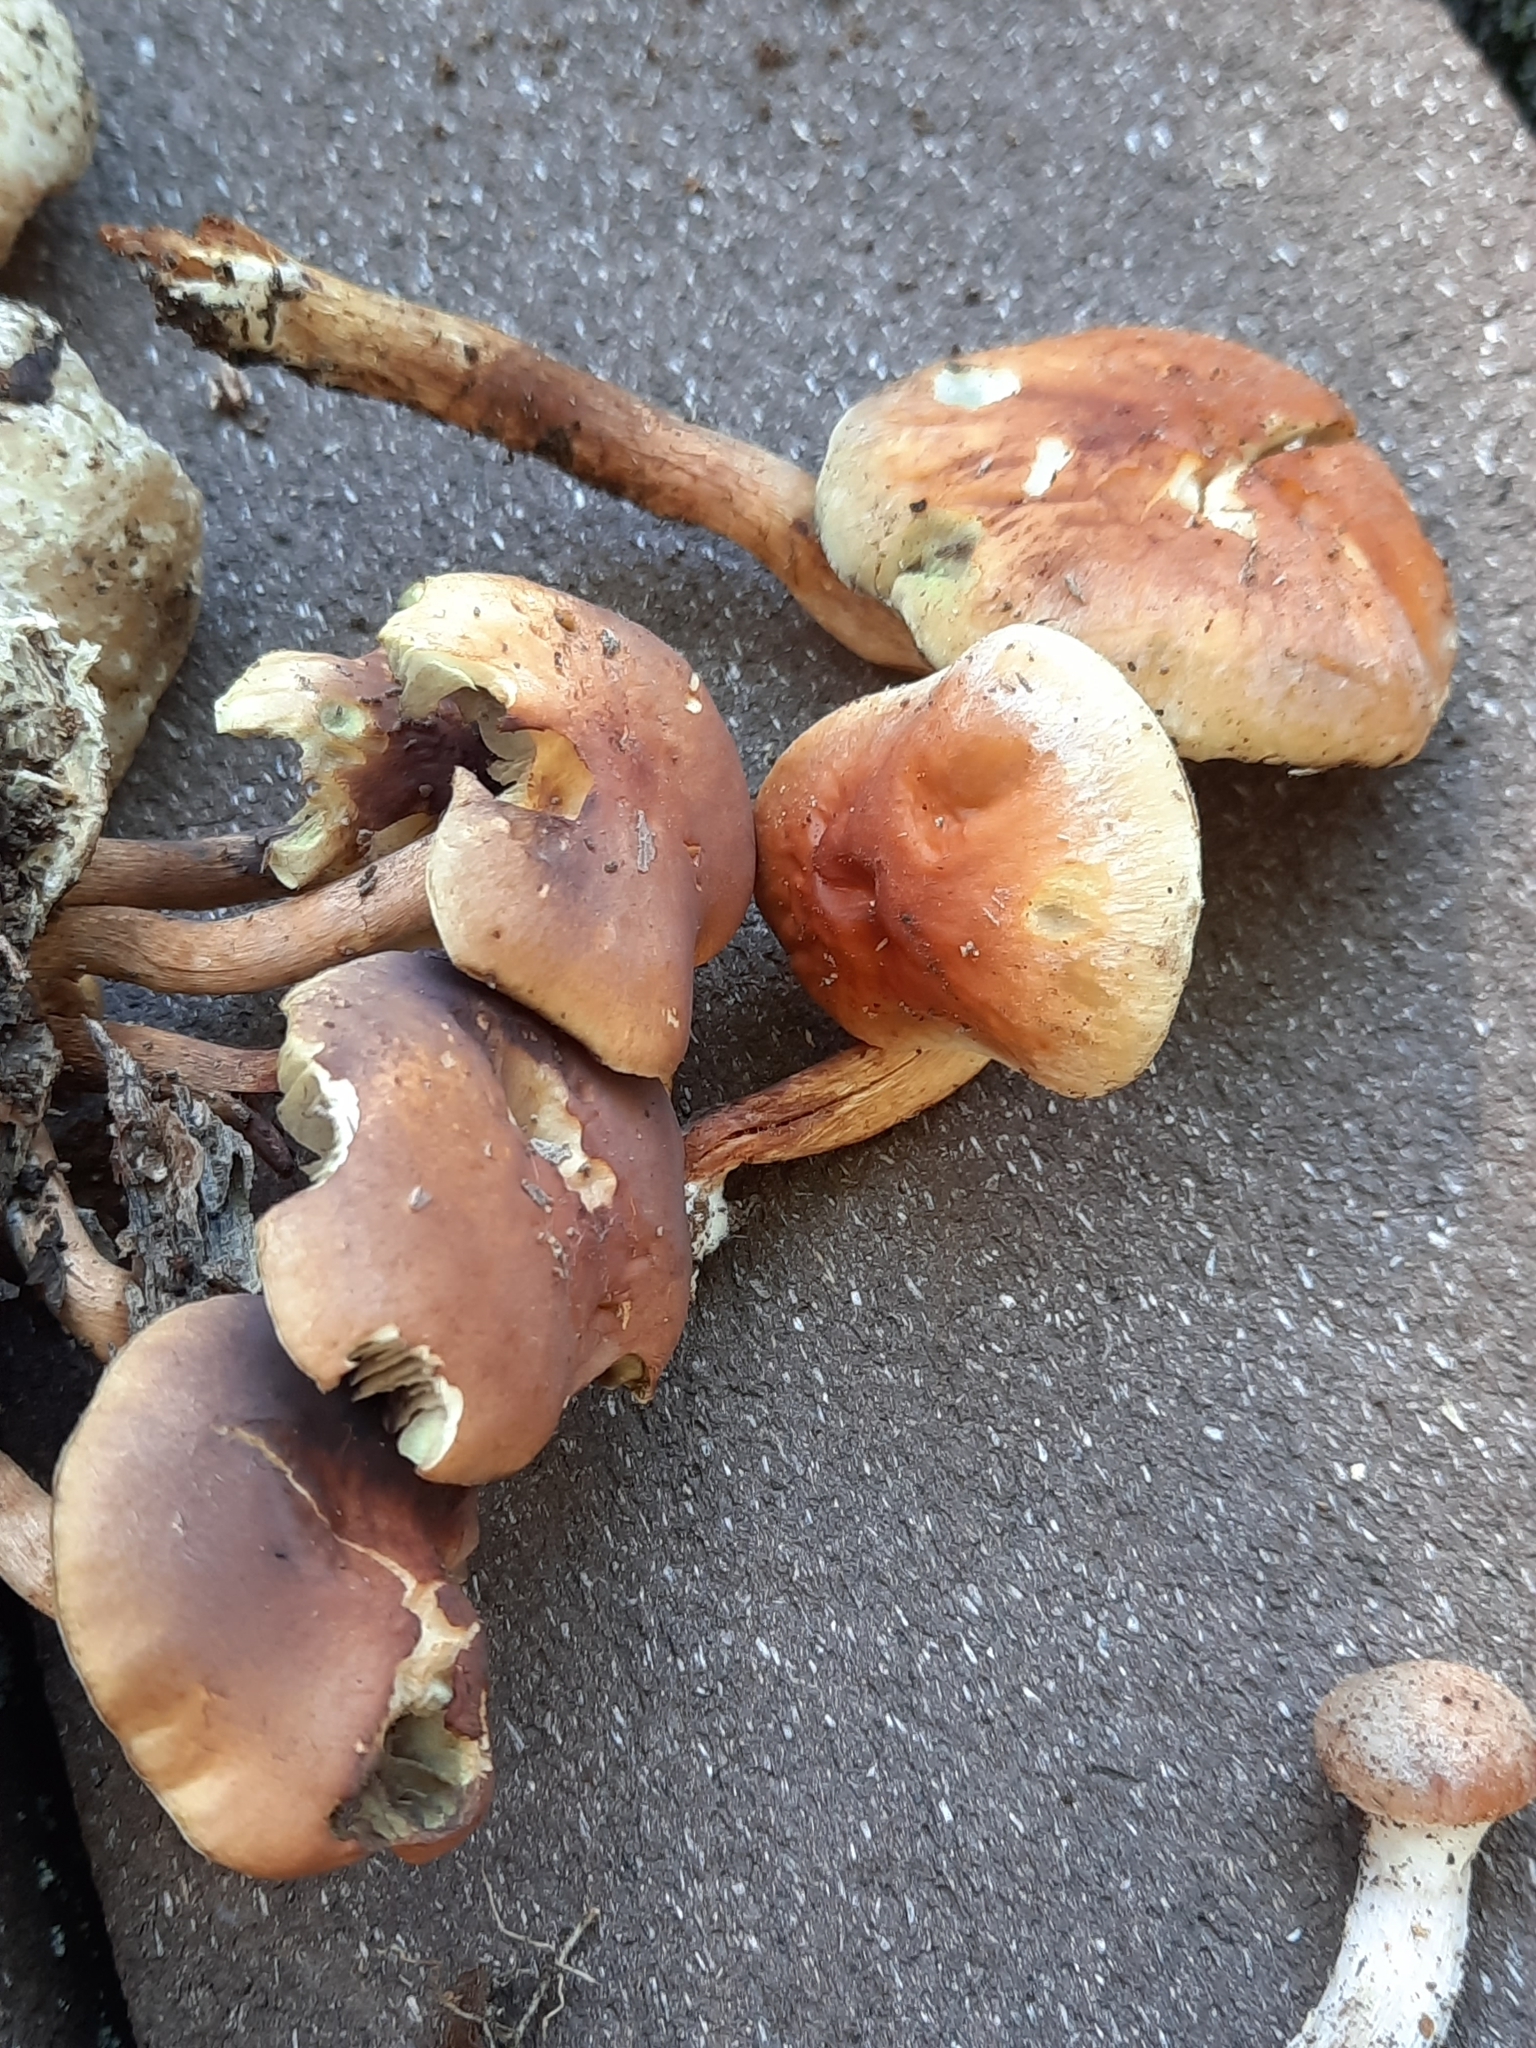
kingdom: Fungi
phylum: Basidiomycota
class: Agaricomycetes
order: Agaricales
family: Strophariaceae
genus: Hypholoma
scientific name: Hypholoma lateritium
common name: Brick caps
